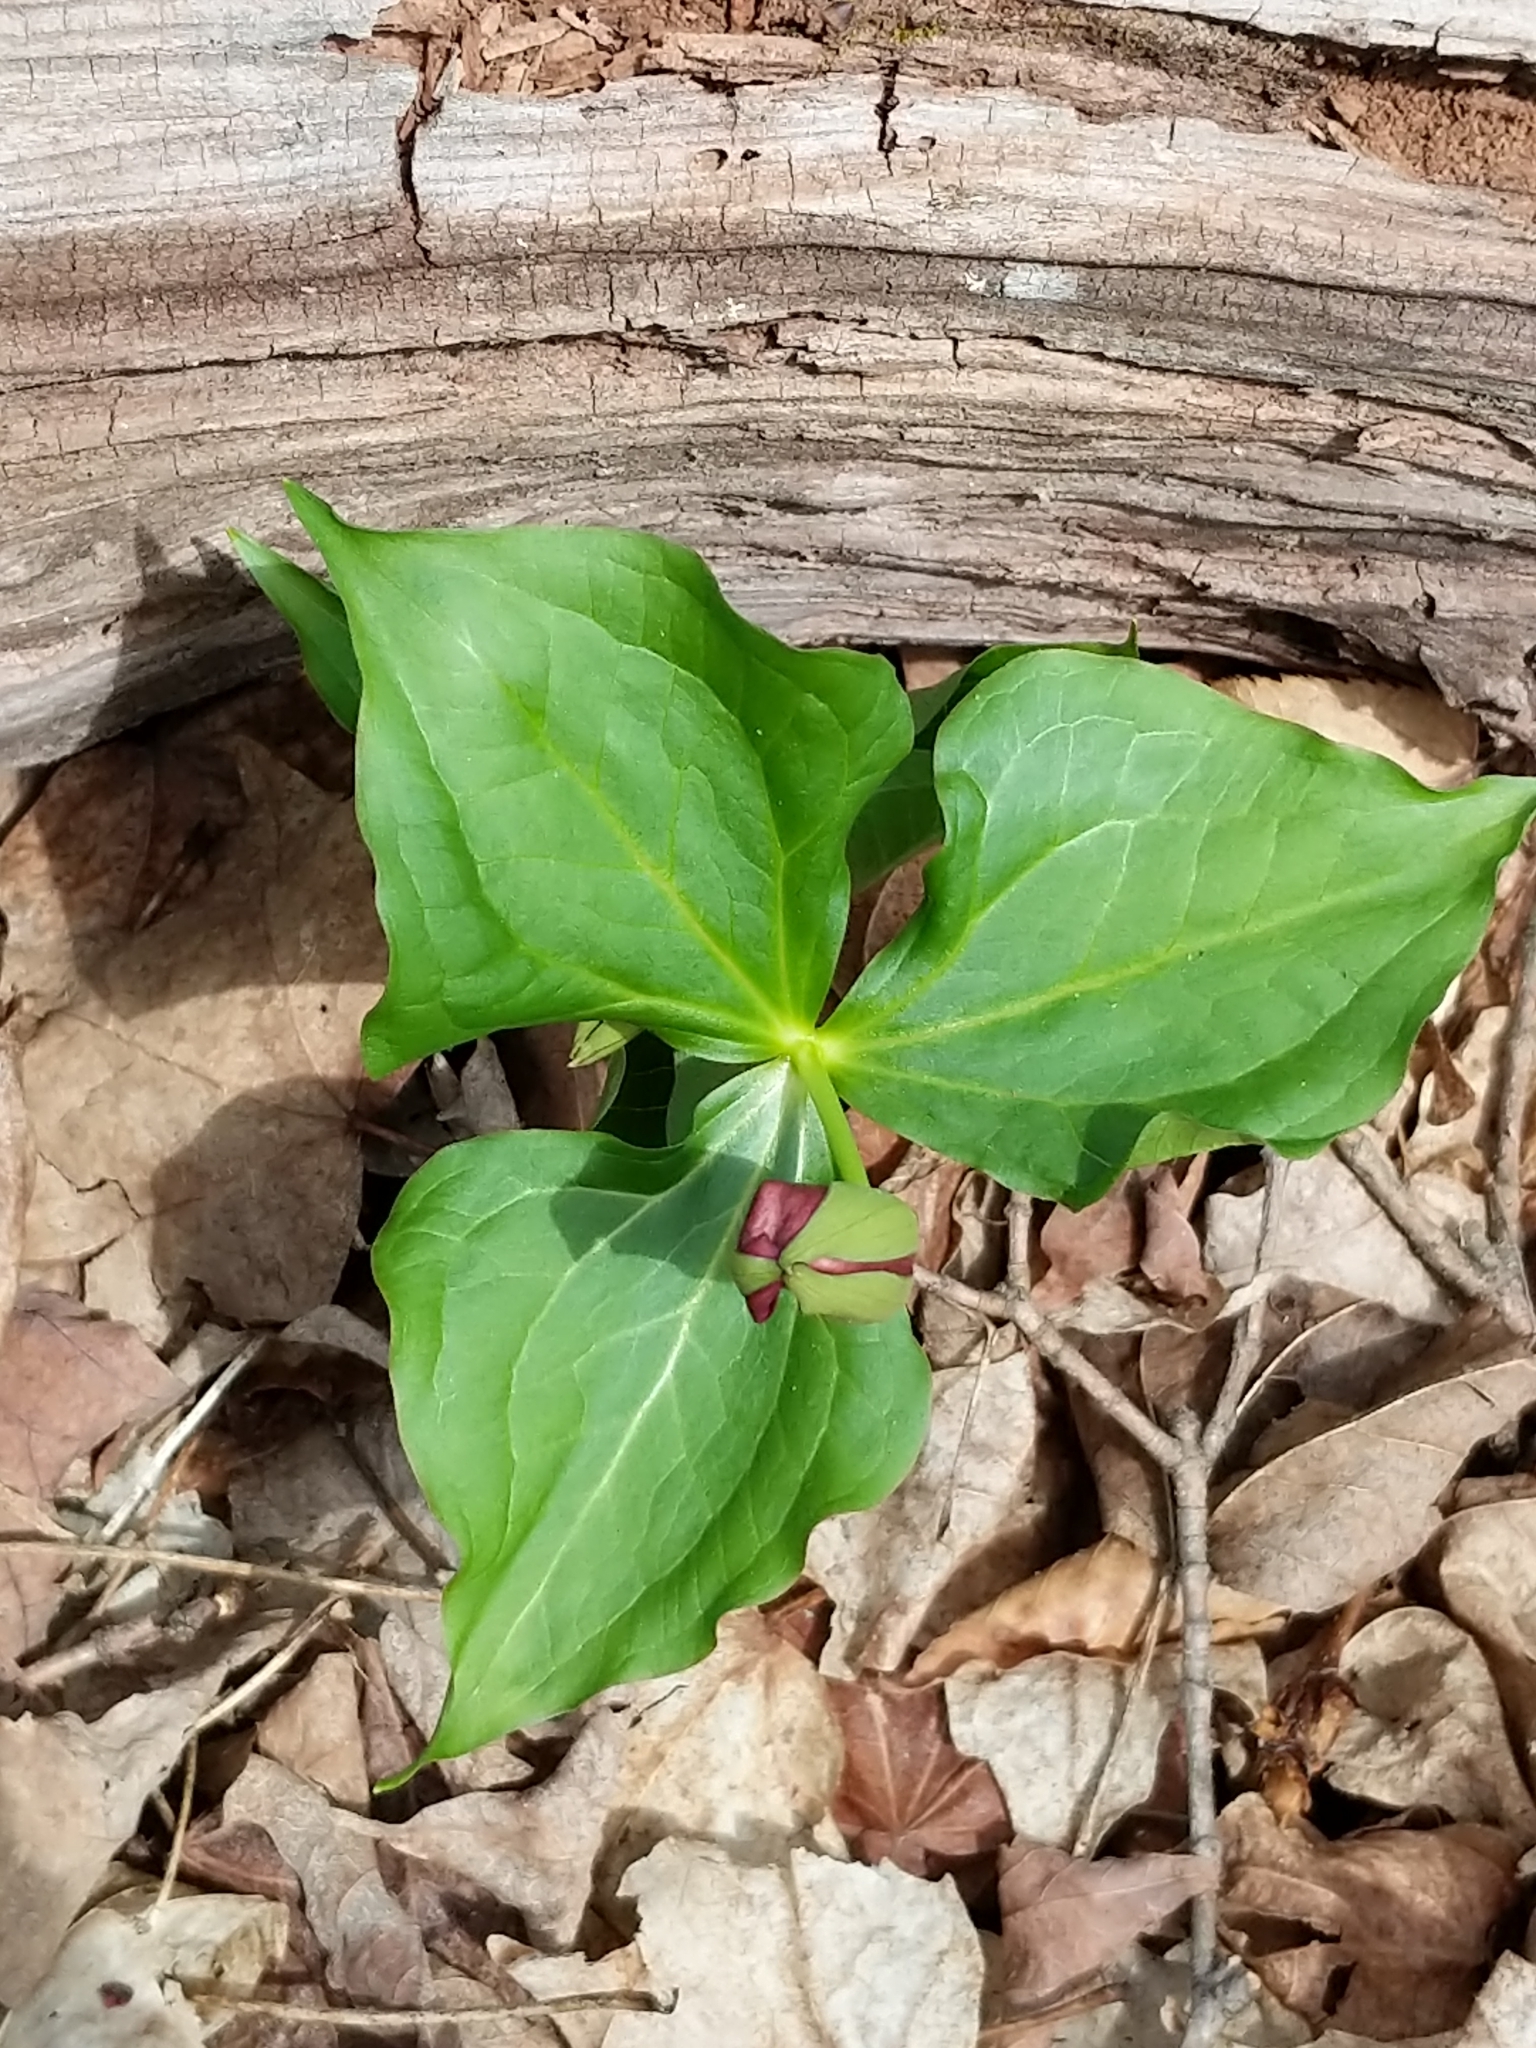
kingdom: Plantae
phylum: Tracheophyta
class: Liliopsida
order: Liliales
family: Melanthiaceae
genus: Trillium
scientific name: Trillium erectum
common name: Purple trillium
